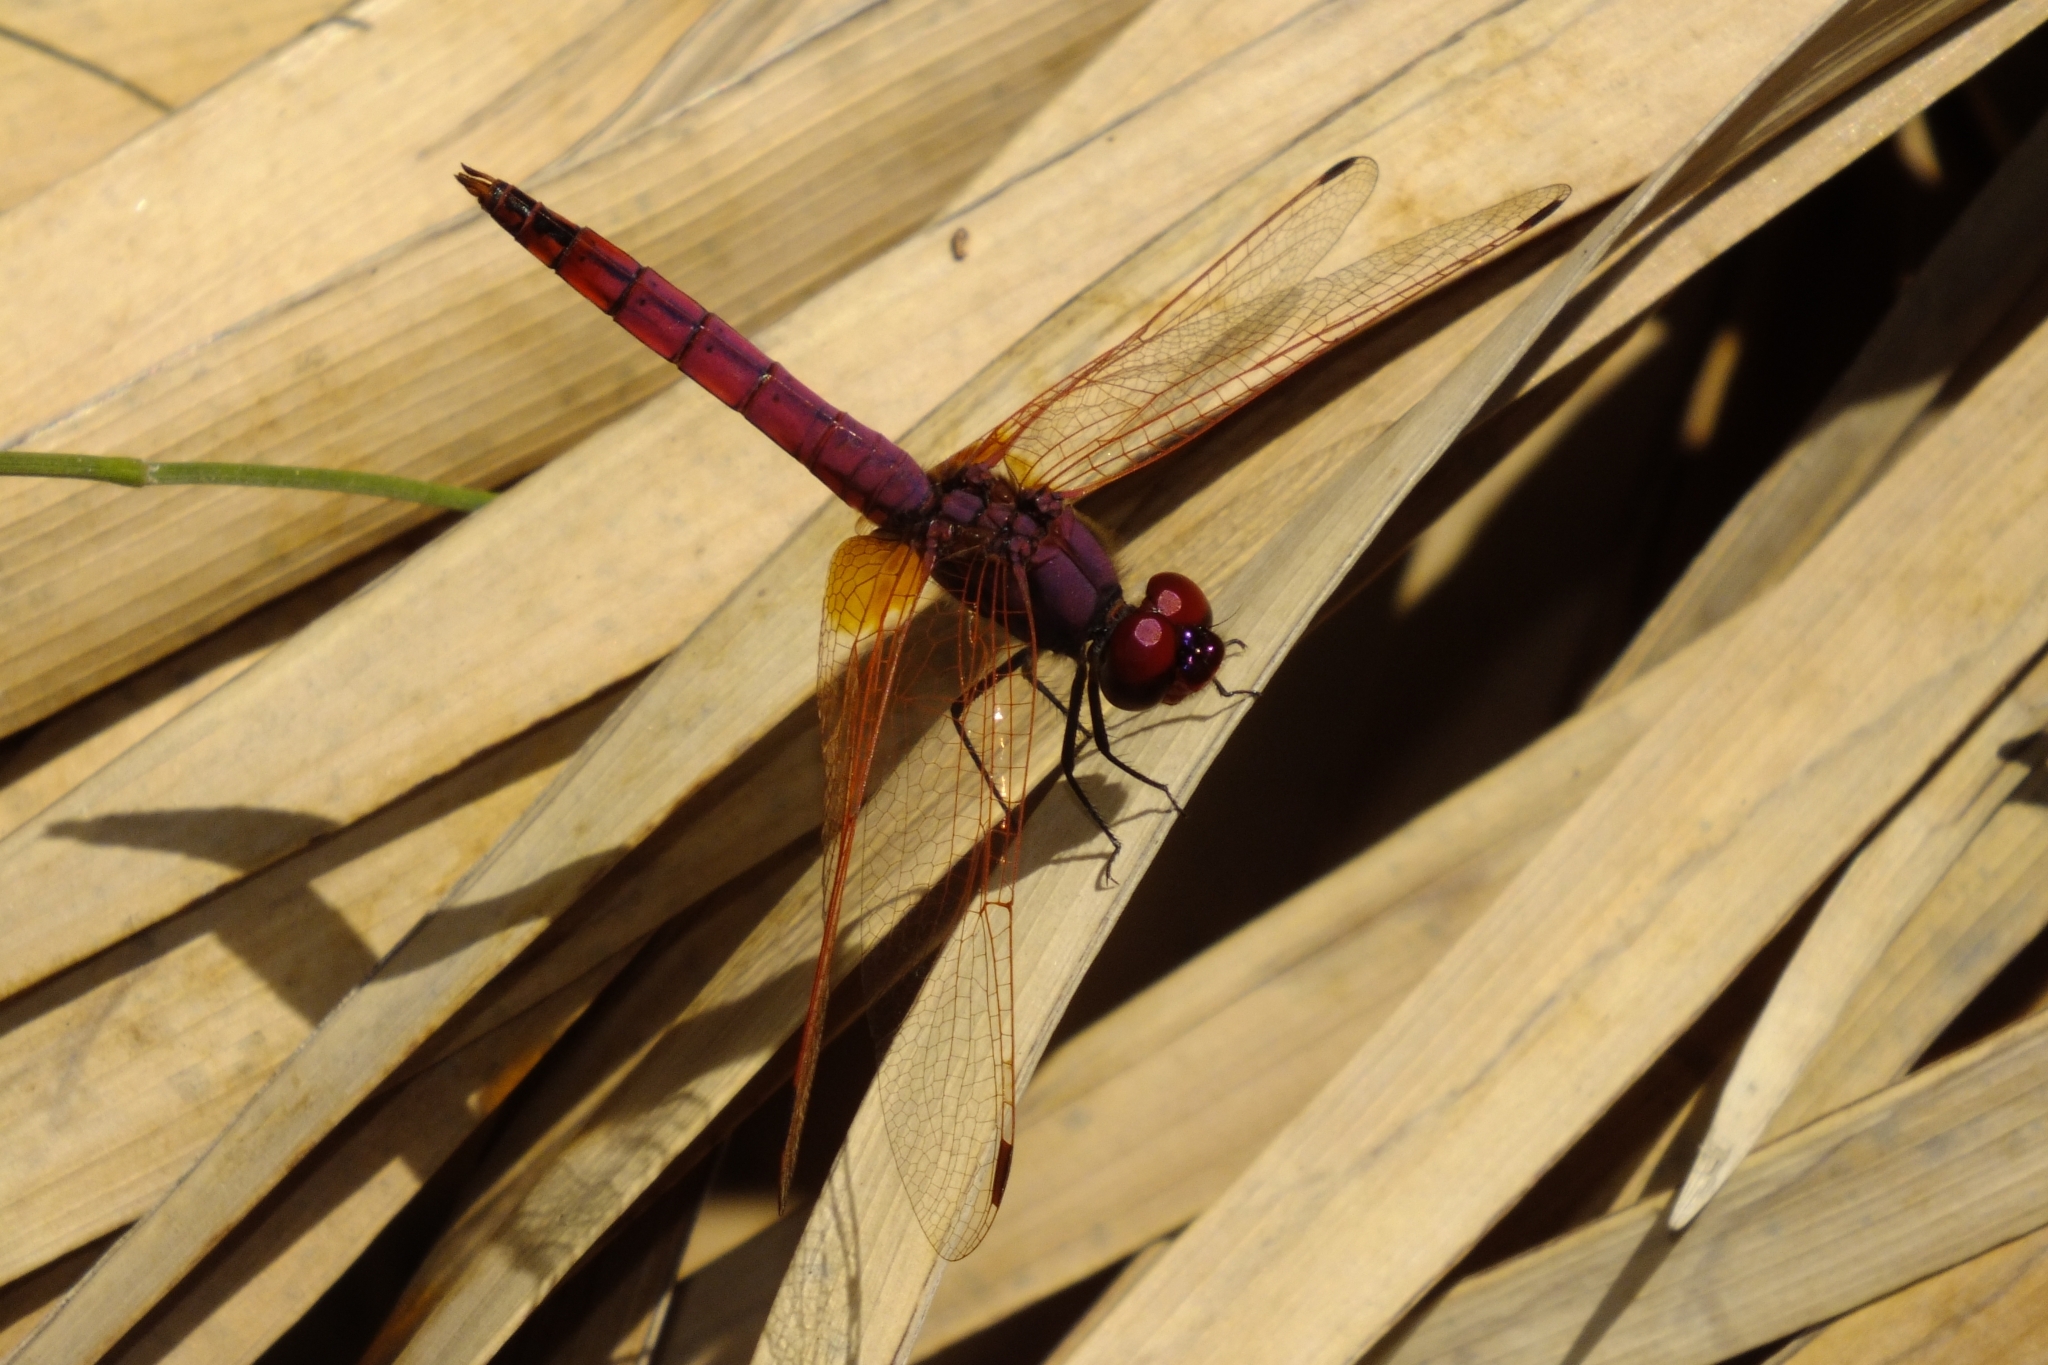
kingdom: Animalia
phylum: Arthropoda
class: Insecta
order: Odonata
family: Libellulidae
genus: Trithemis
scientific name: Trithemis annulata
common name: Violet dropwing
